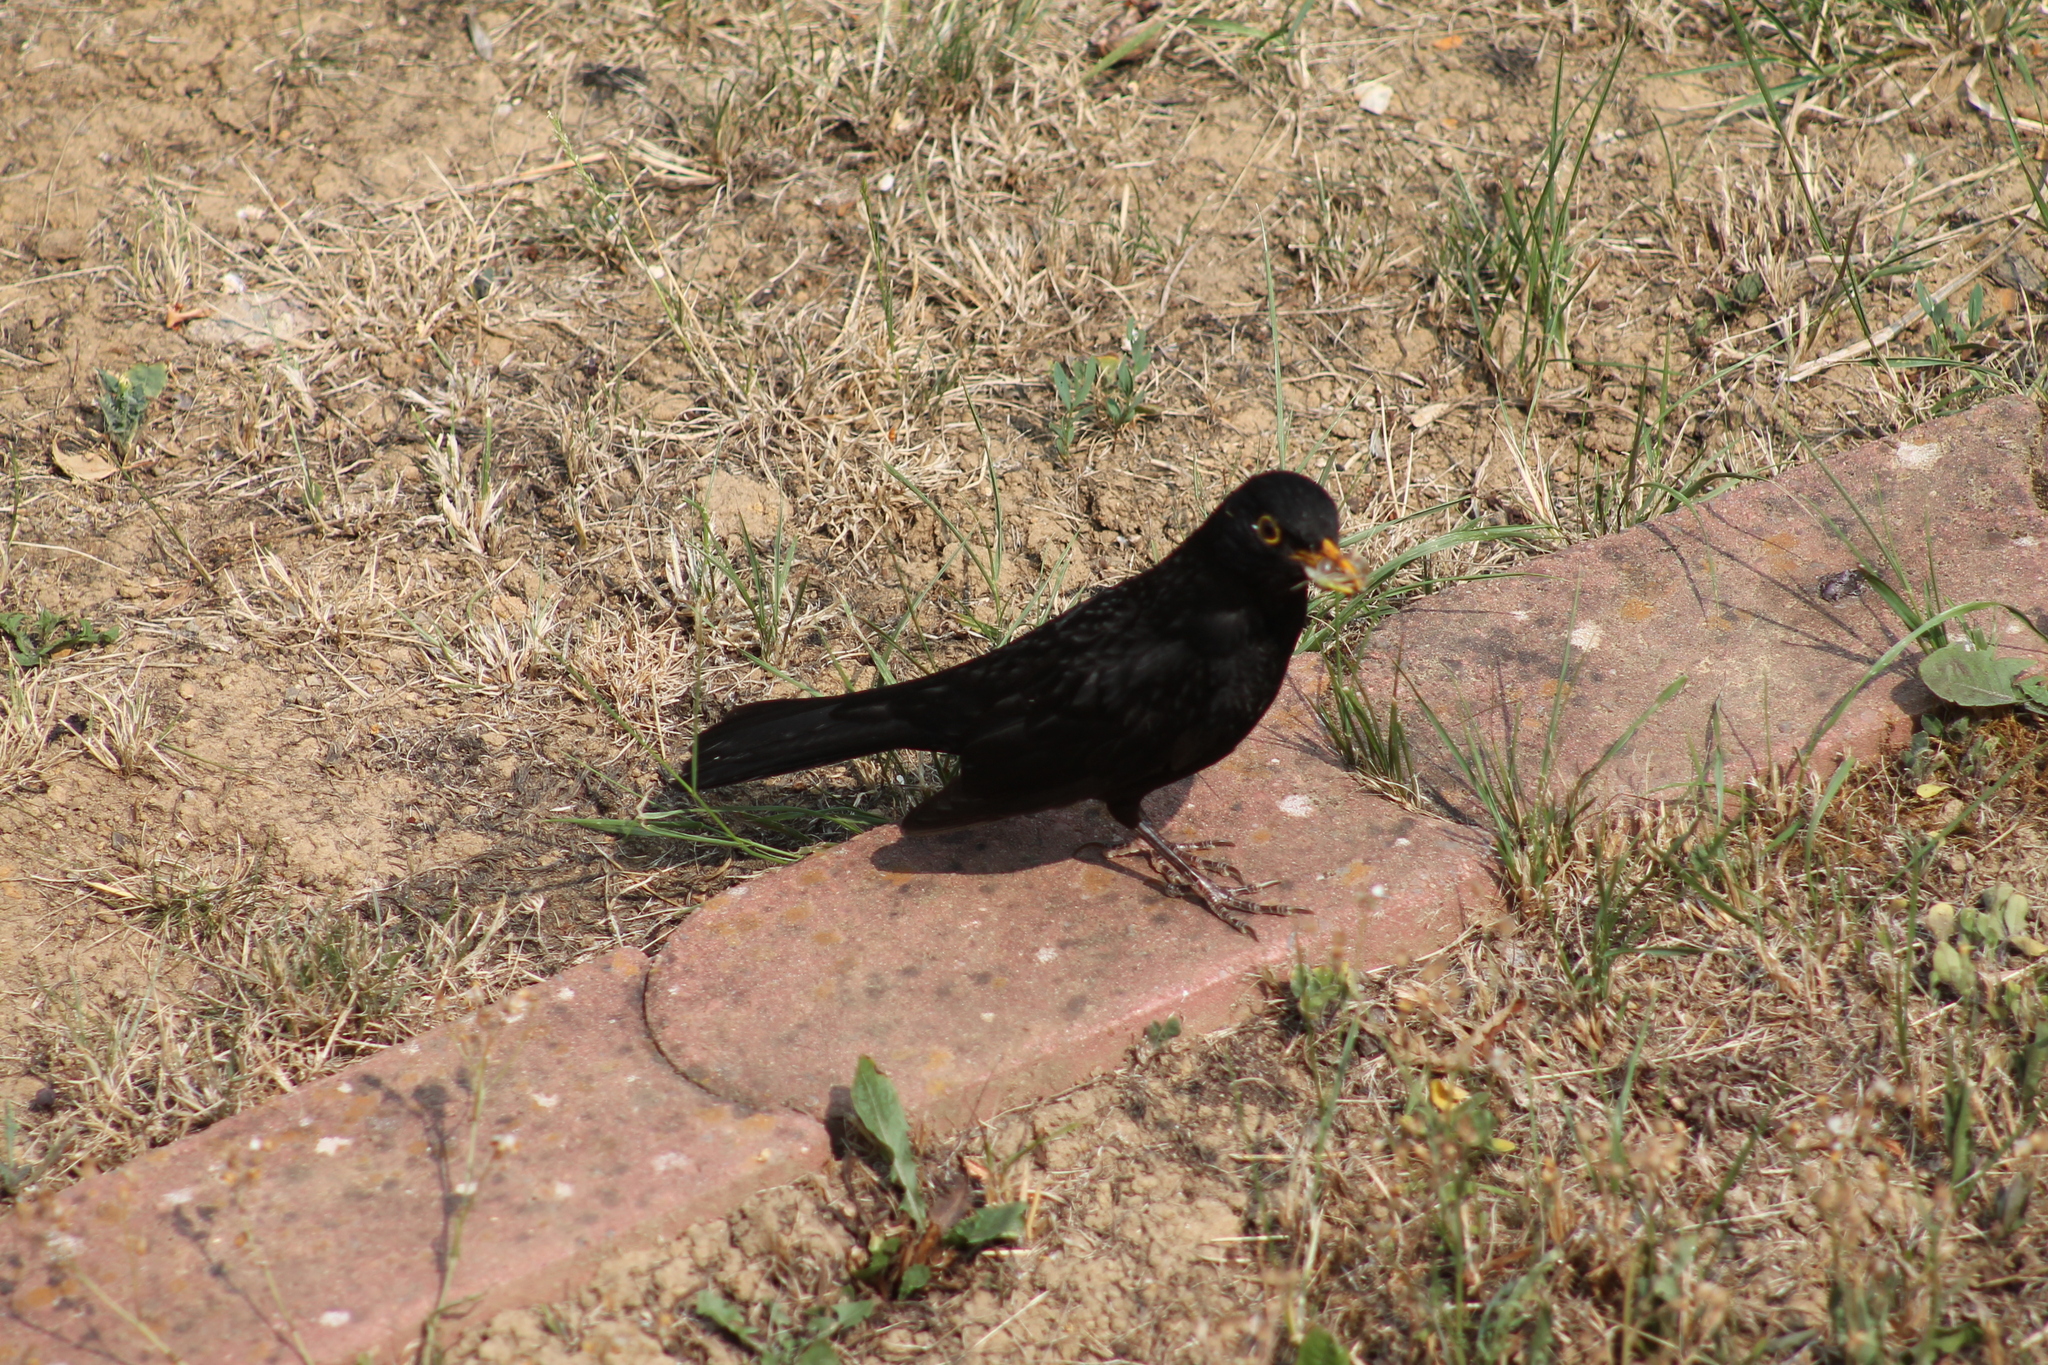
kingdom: Animalia
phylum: Chordata
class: Aves
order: Passeriformes
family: Turdidae
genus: Turdus
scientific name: Turdus merula
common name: Common blackbird
